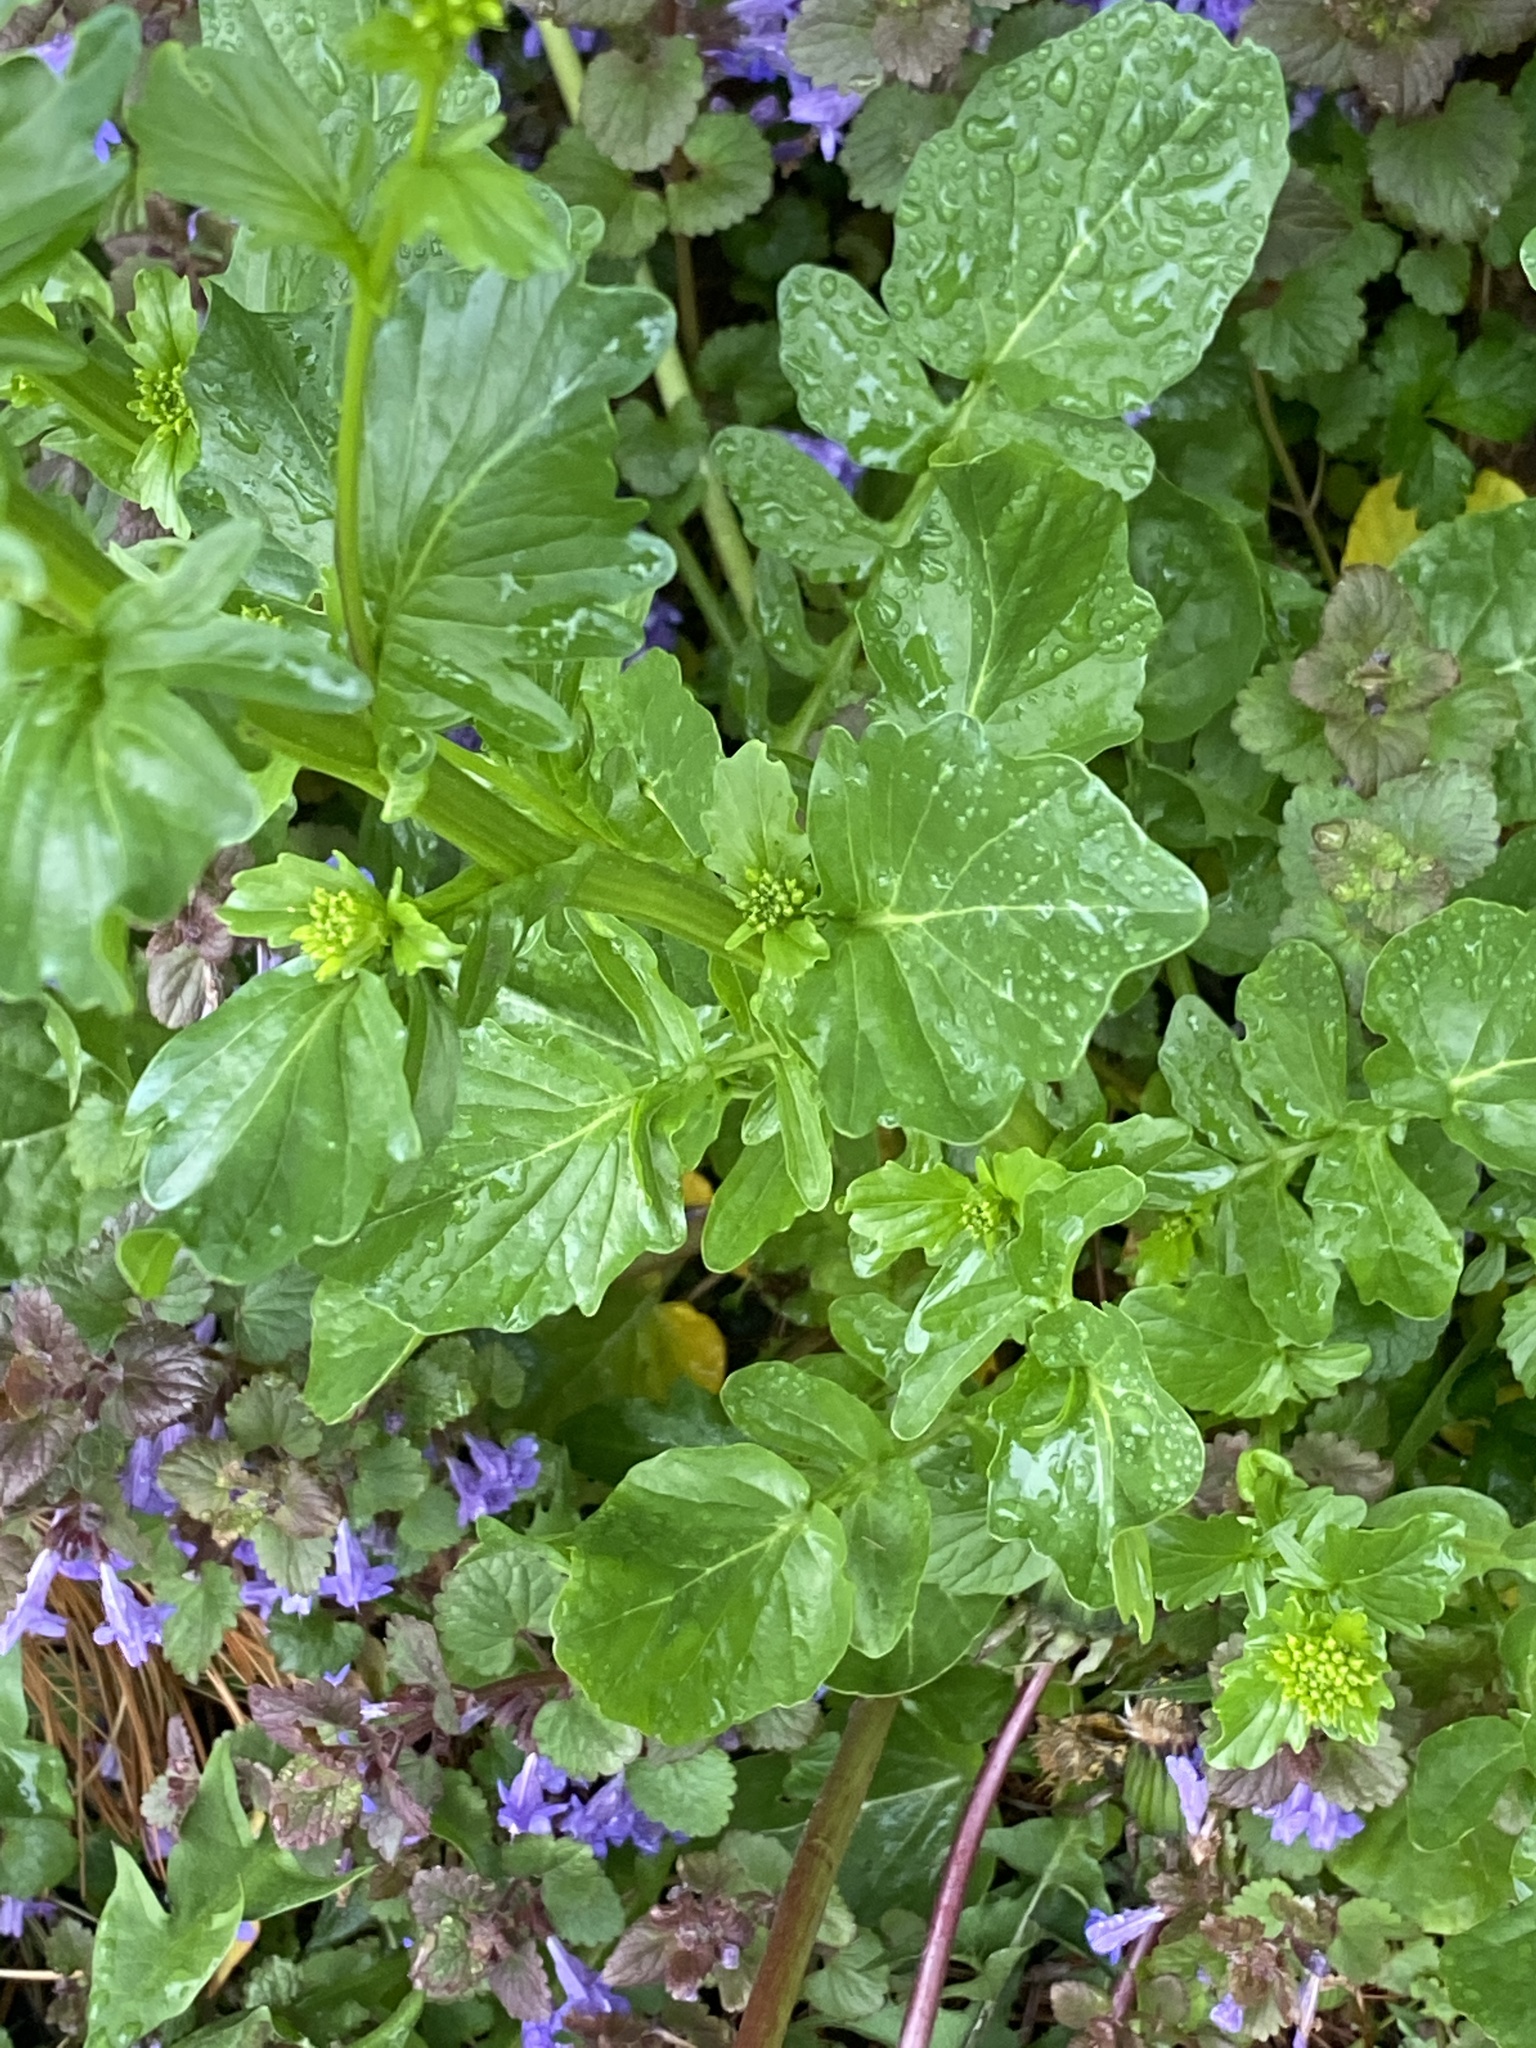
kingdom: Plantae
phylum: Tracheophyta
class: Magnoliopsida
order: Brassicales
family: Brassicaceae
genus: Barbarea
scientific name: Barbarea vulgaris
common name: Cressy-greens
